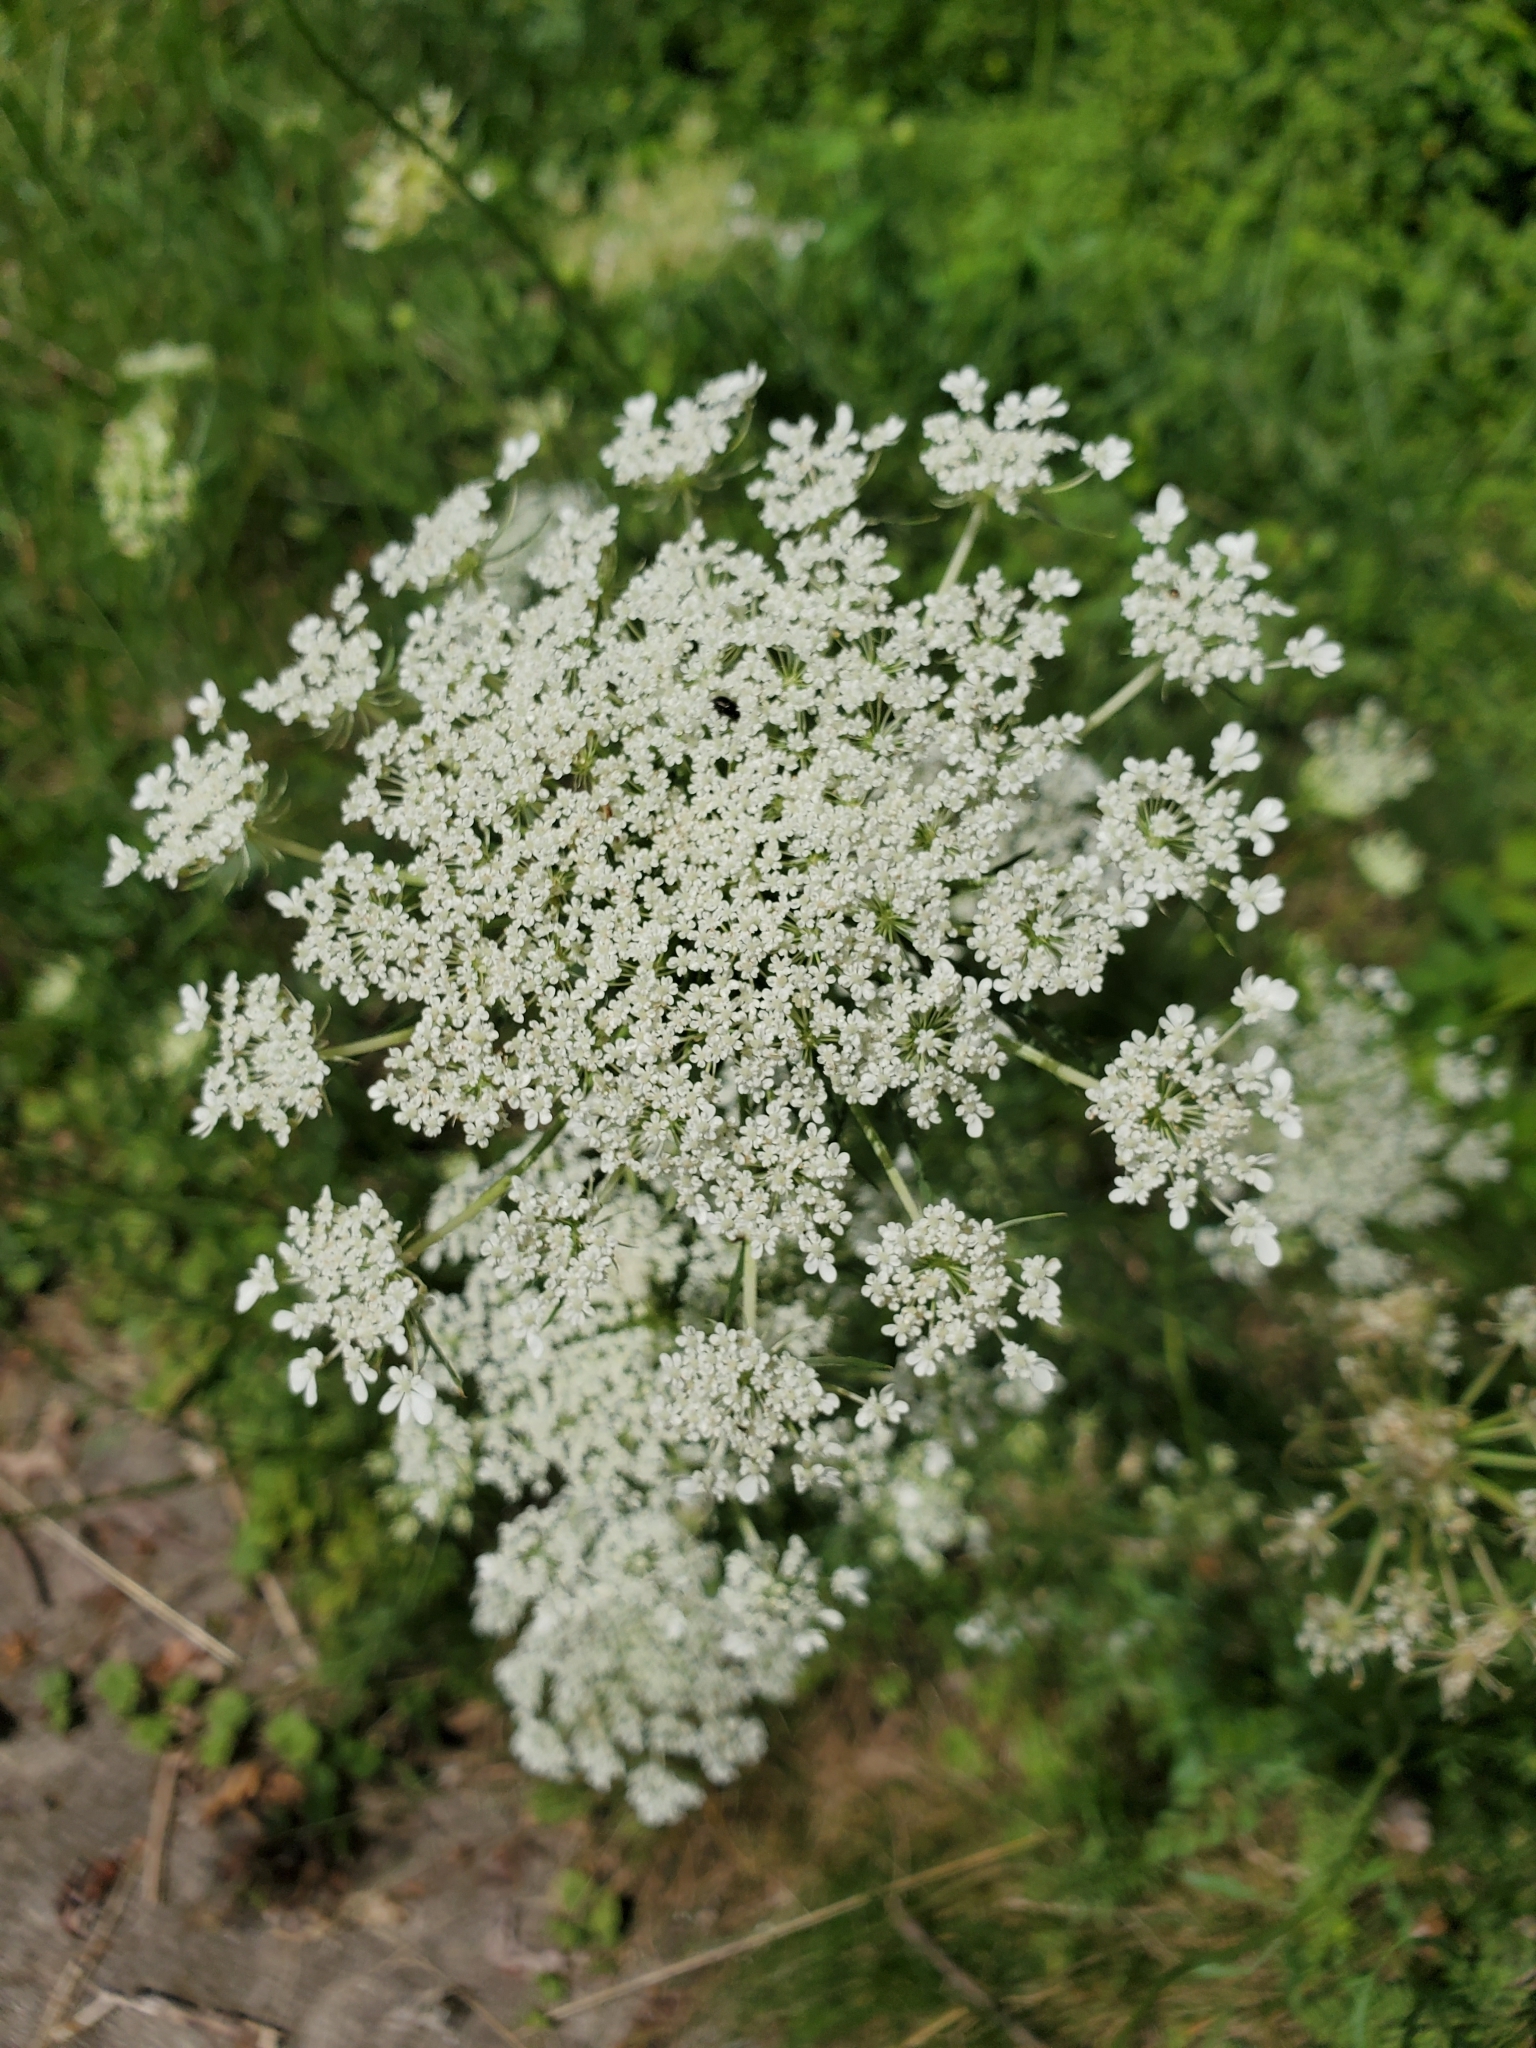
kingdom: Plantae
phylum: Tracheophyta
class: Magnoliopsida
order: Apiales
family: Apiaceae
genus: Daucus
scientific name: Daucus carota
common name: Wild carrot
